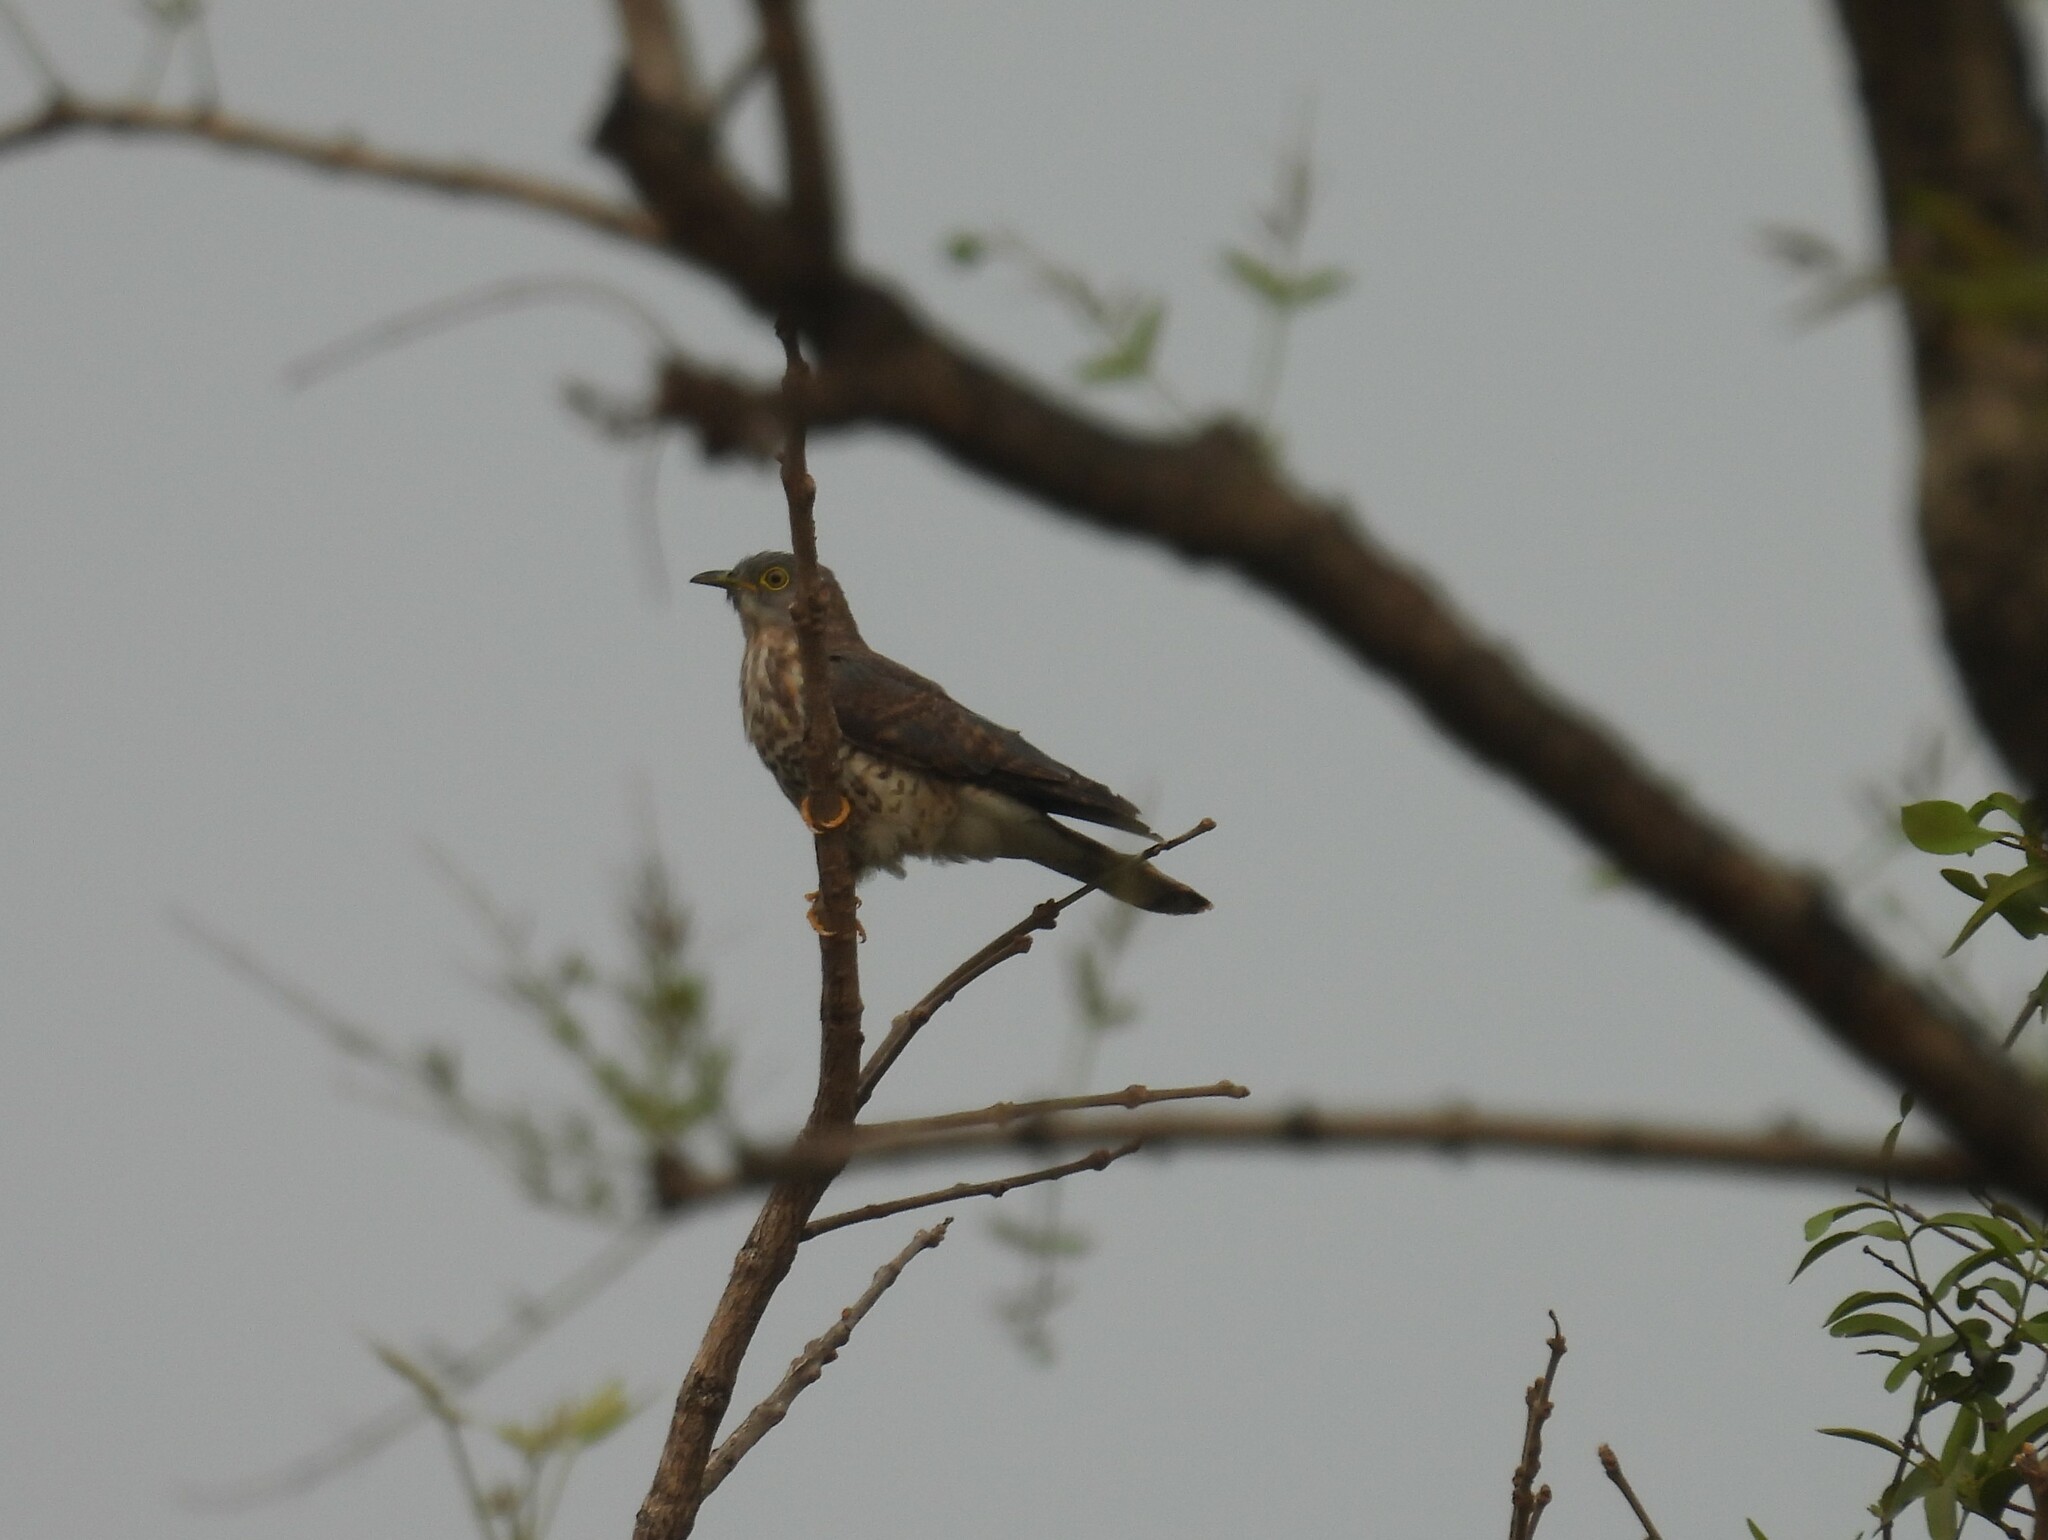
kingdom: Animalia
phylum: Chordata
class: Aves
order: Cuculiformes
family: Cuculidae
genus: Cuculus
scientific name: Cuculus varius
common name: Common hawk cuckoo
